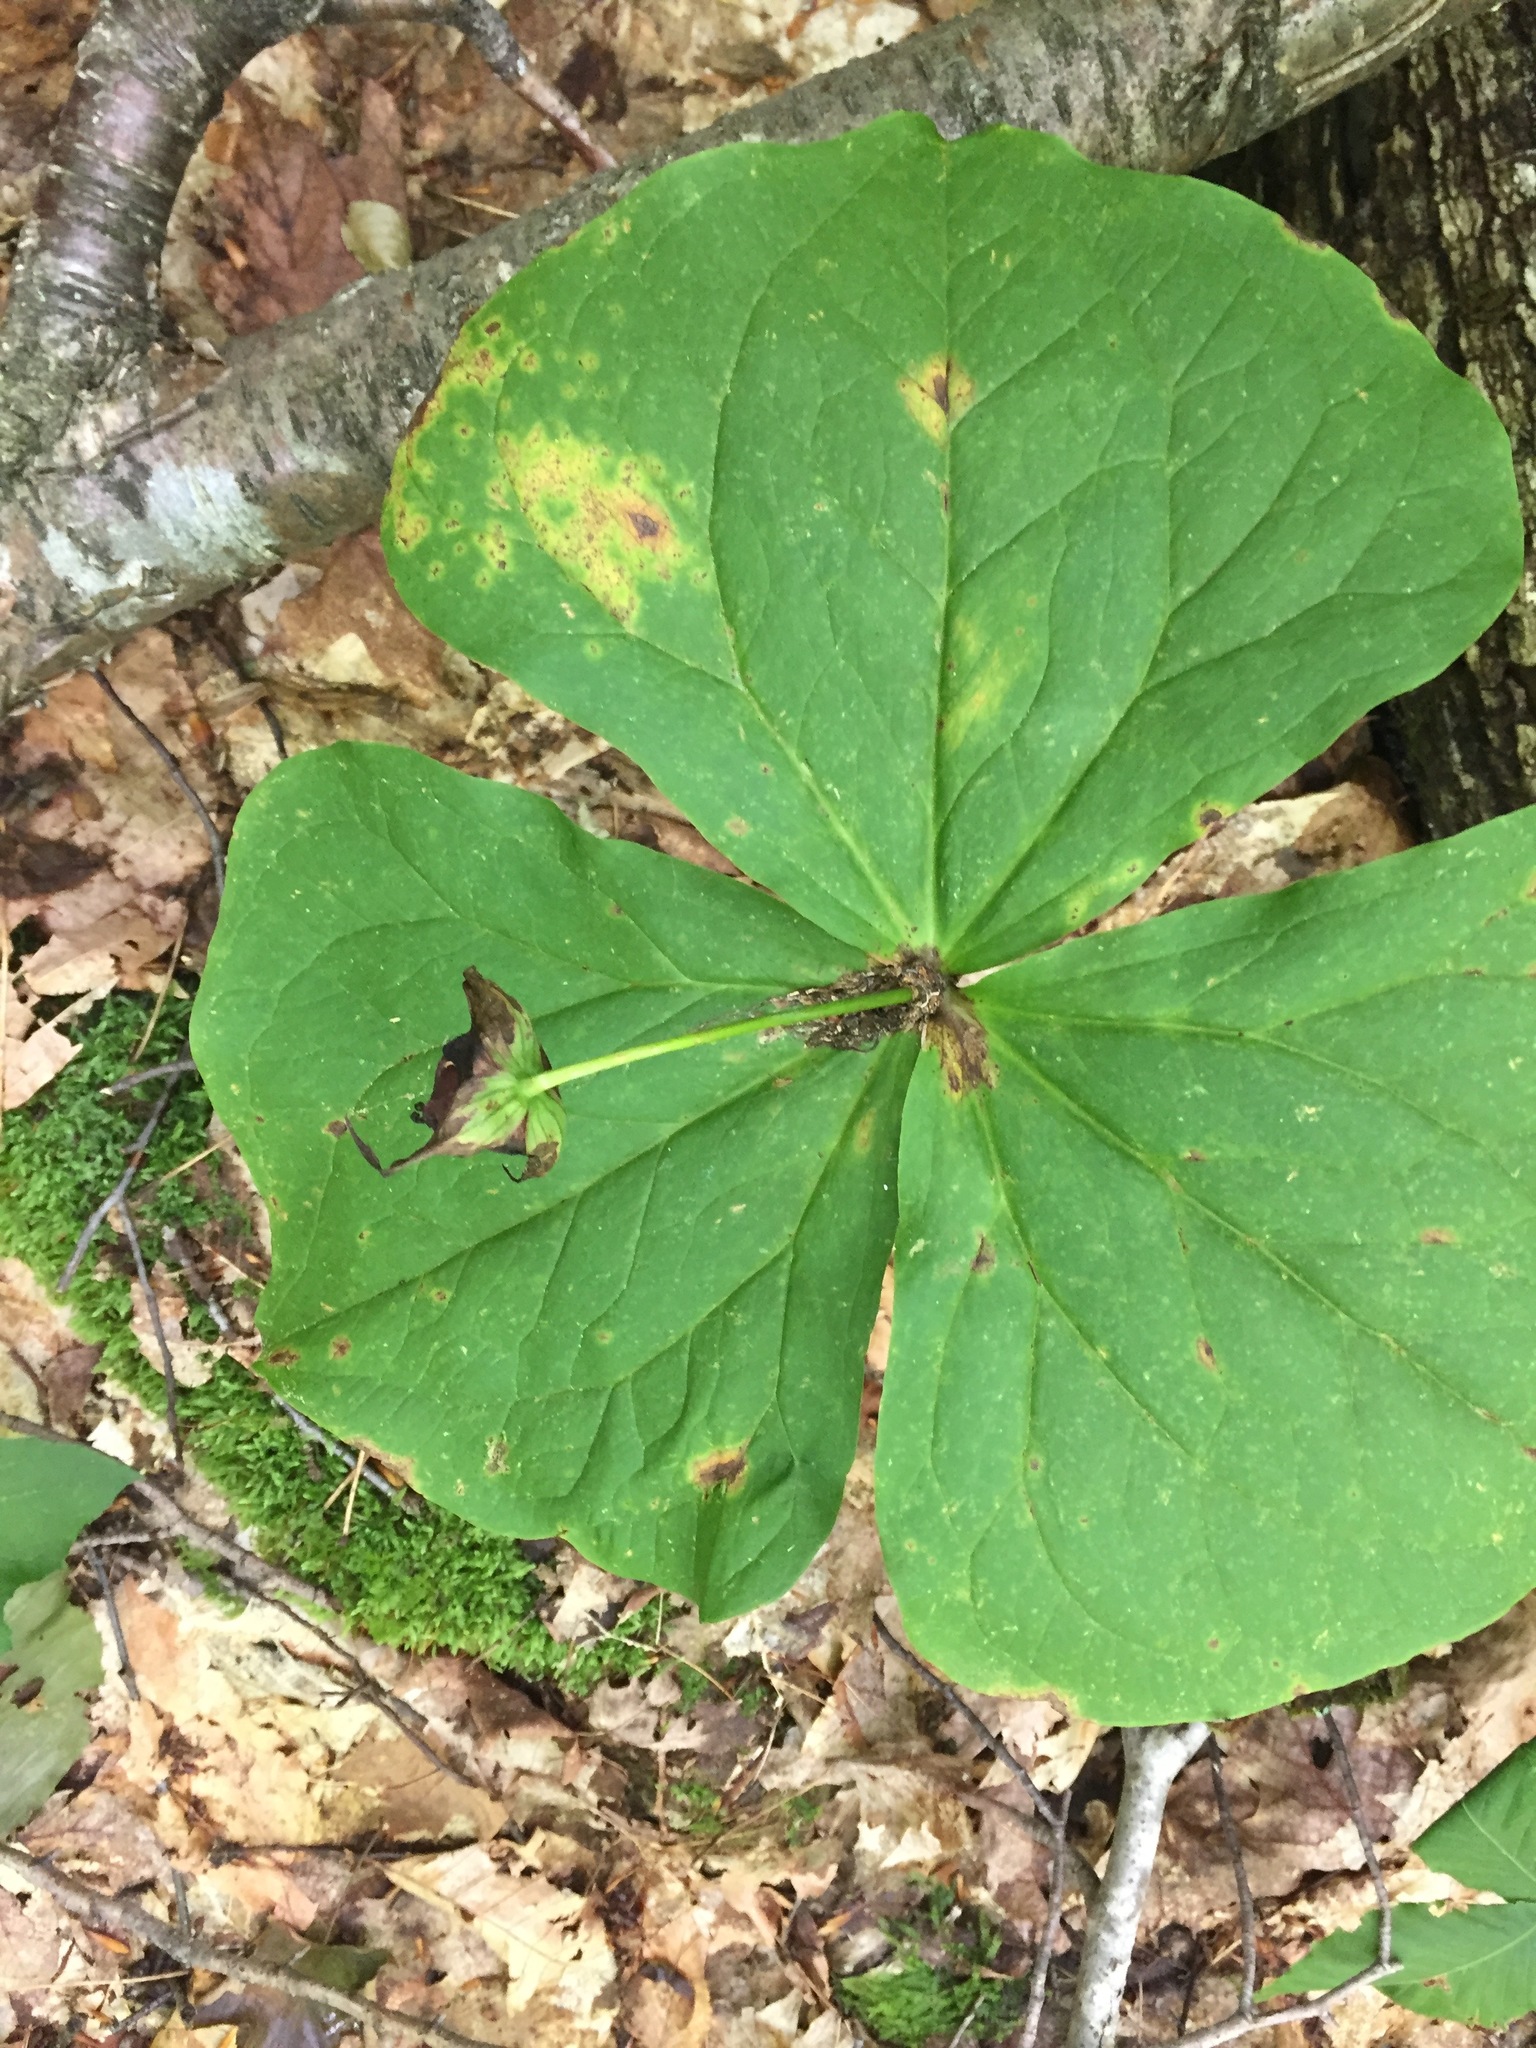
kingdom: Plantae
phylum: Tracheophyta
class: Liliopsida
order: Liliales
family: Melanthiaceae
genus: Trillium
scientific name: Trillium erectum
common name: Purple trillium
